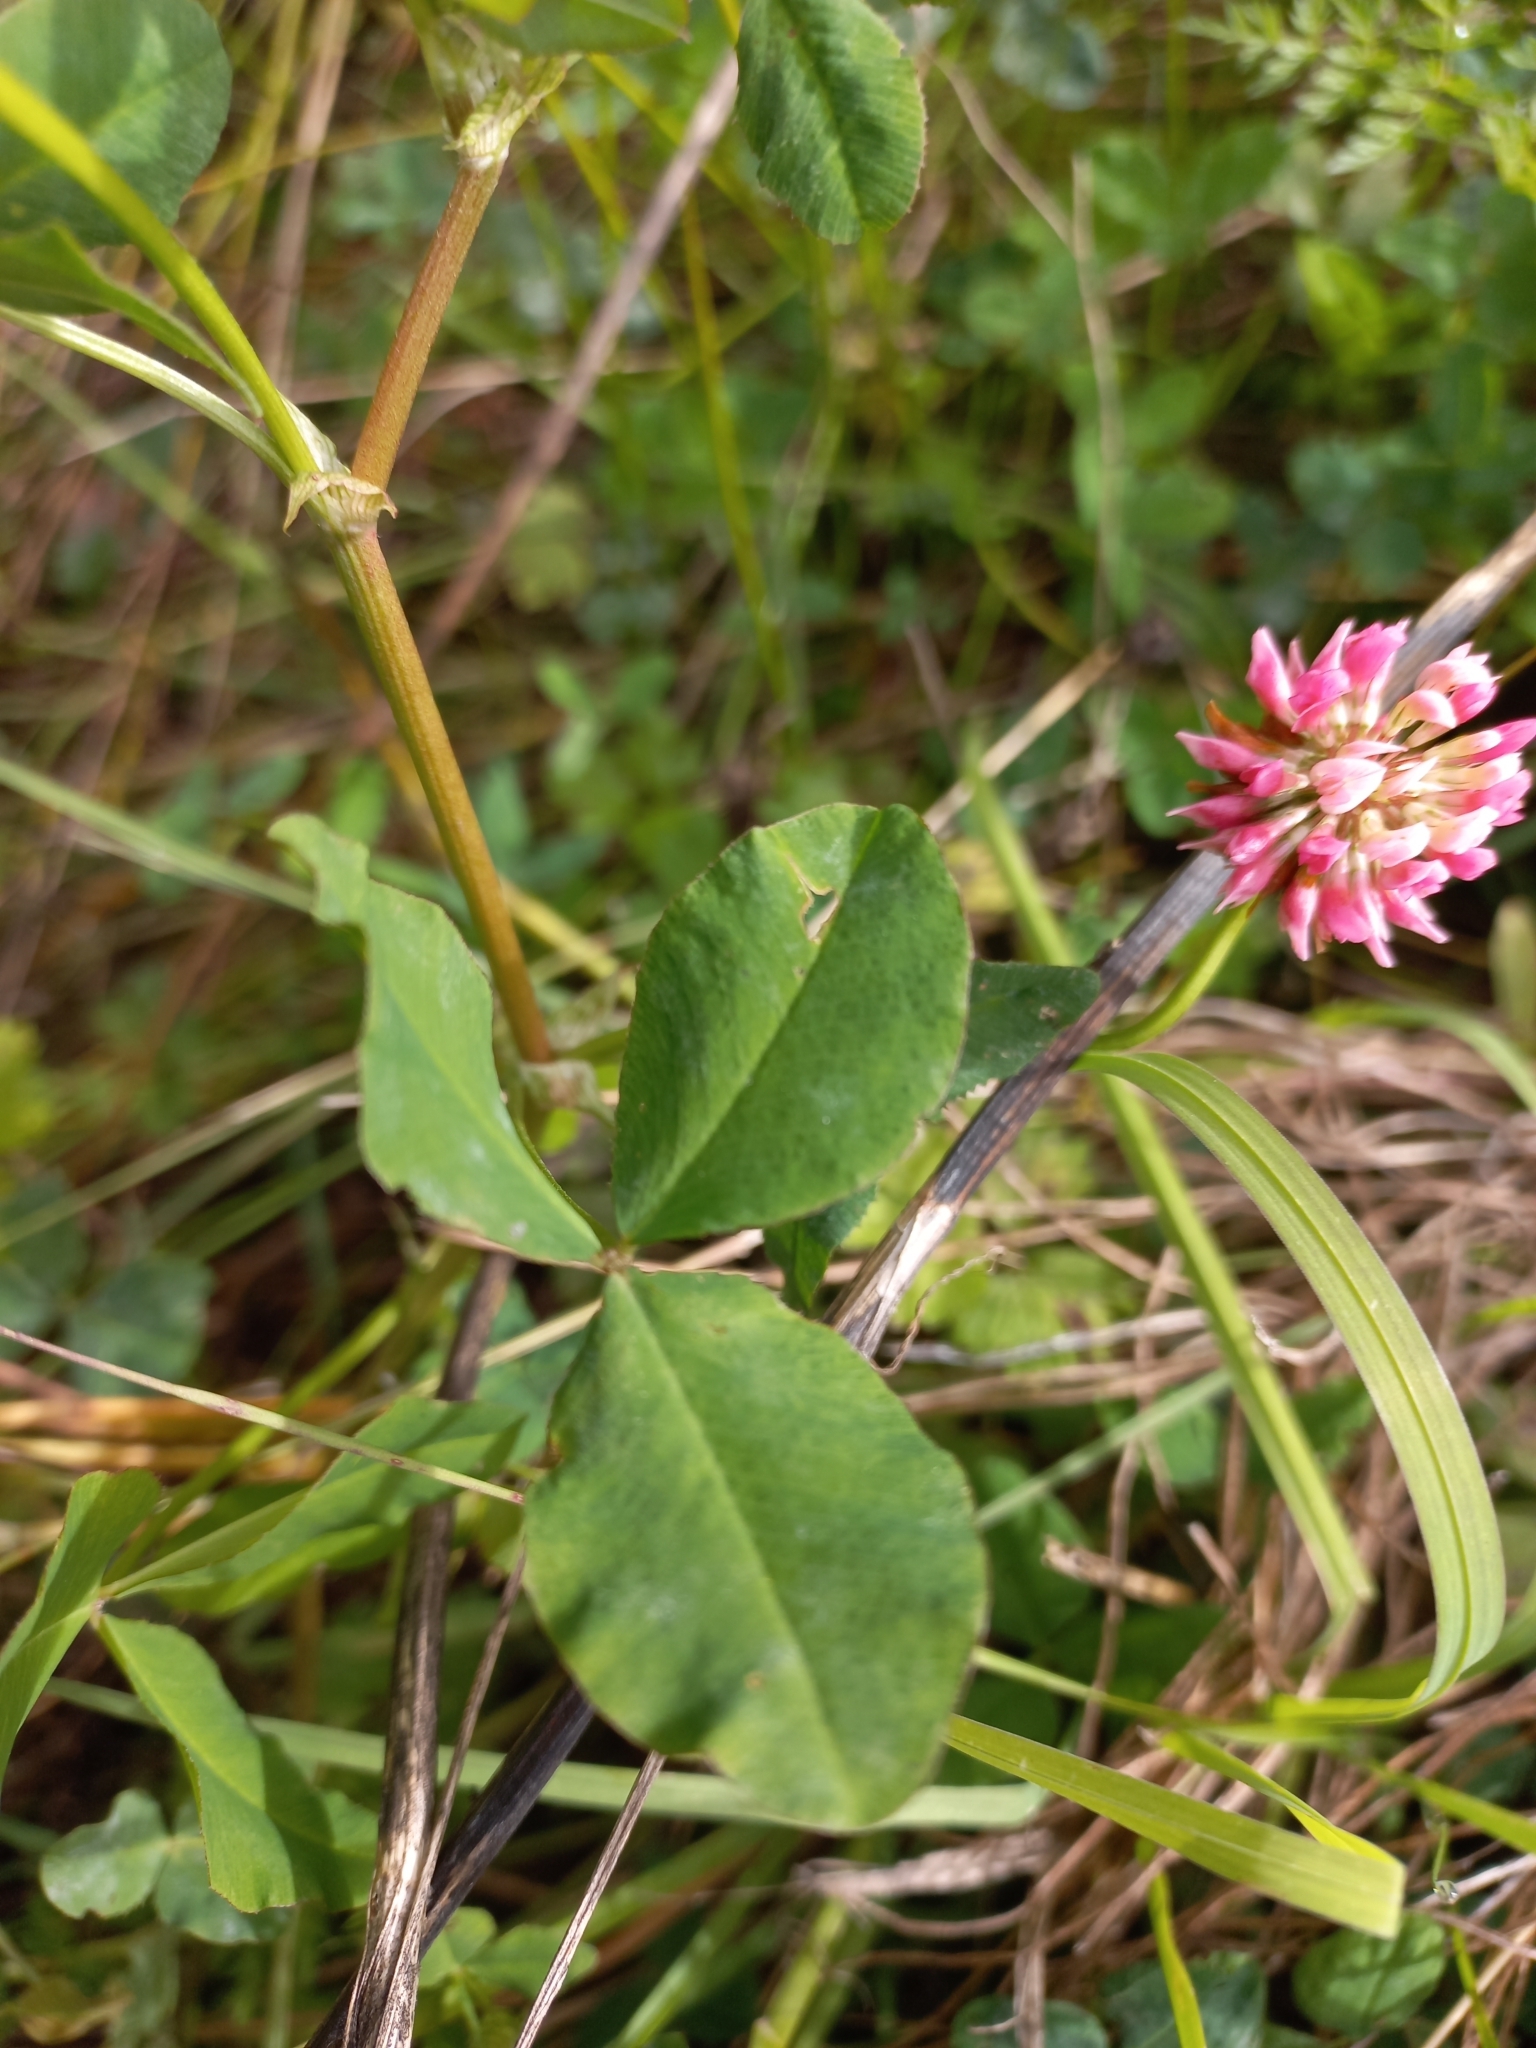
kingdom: Plantae
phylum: Tracheophyta
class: Magnoliopsida
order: Fabales
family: Fabaceae
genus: Trifolium
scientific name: Trifolium hybridum
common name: Alsike clover
